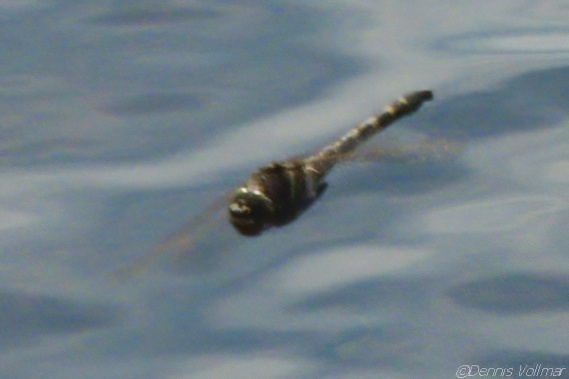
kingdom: Animalia
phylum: Arthropoda
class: Insecta
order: Odonata
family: Macromiidae
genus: Didymops
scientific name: Didymops floridensis
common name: Florida cruiser
